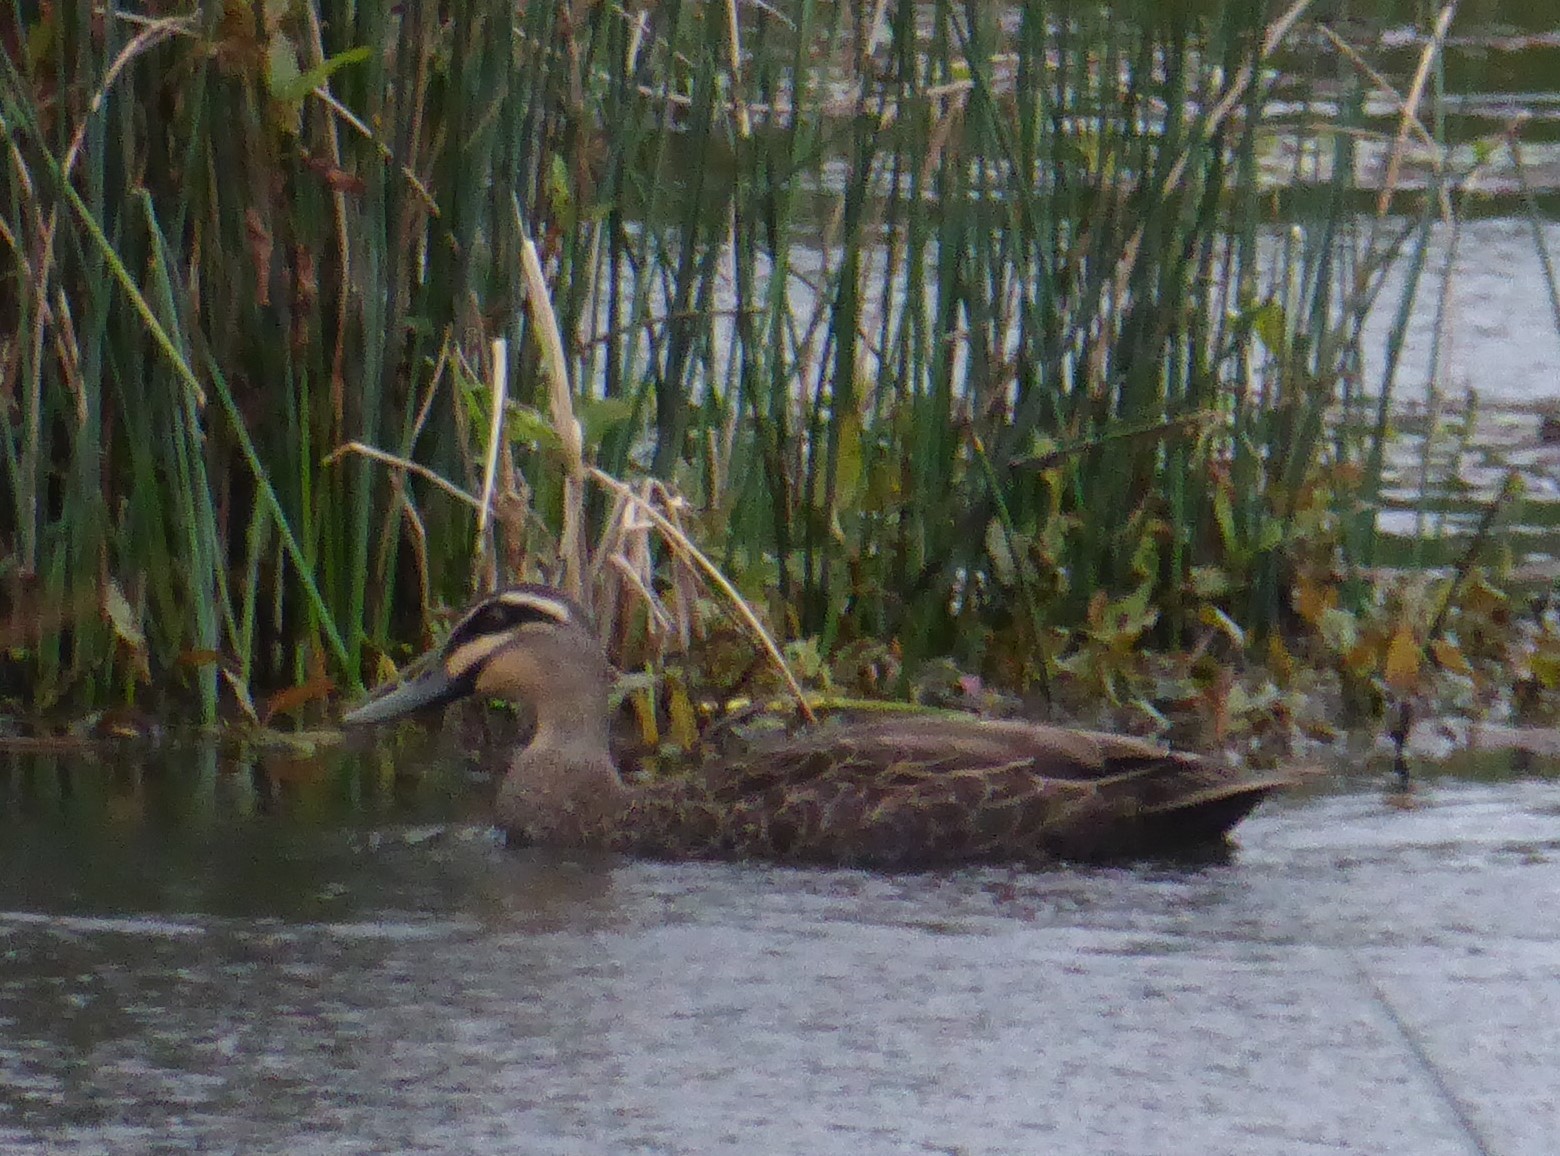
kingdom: Animalia
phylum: Chordata
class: Aves
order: Anseriformes
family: Anatidae
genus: Anas
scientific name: Anas superciliosa
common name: Pacific black duck
